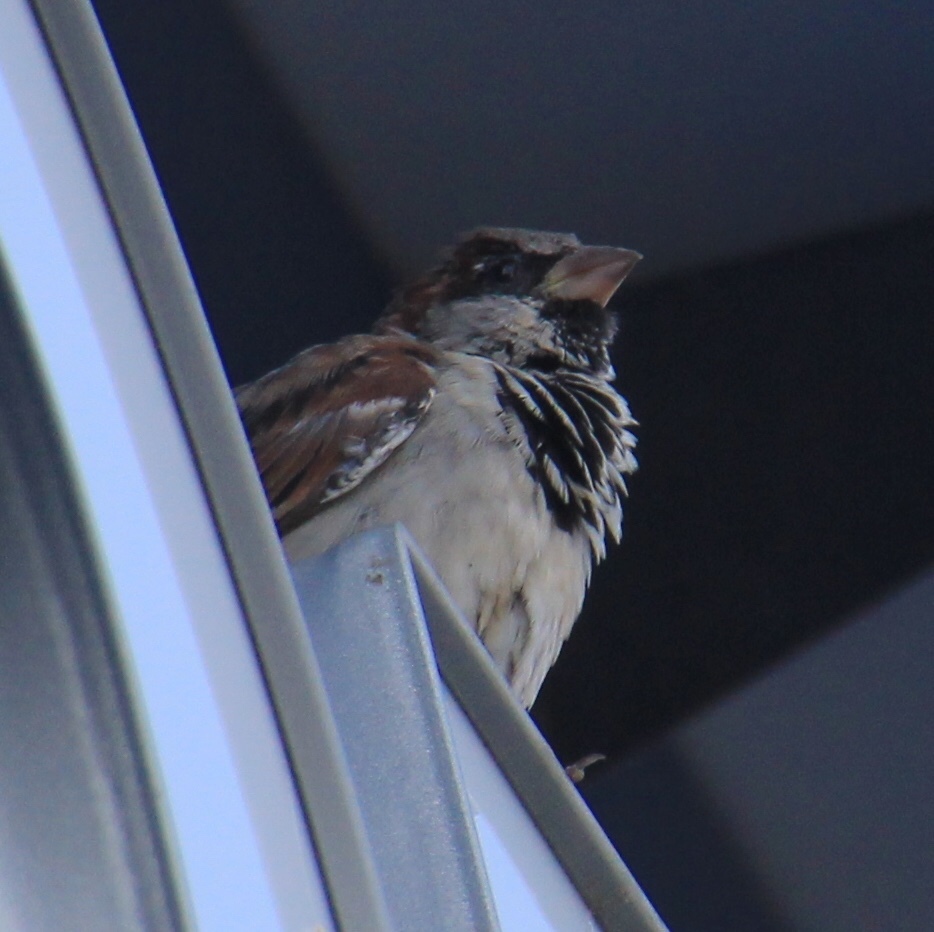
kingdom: Animalia
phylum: Chordata
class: Aves
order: Passeriformes
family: Passeridae
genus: Passer
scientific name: Passer domesticus
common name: House sparrow
